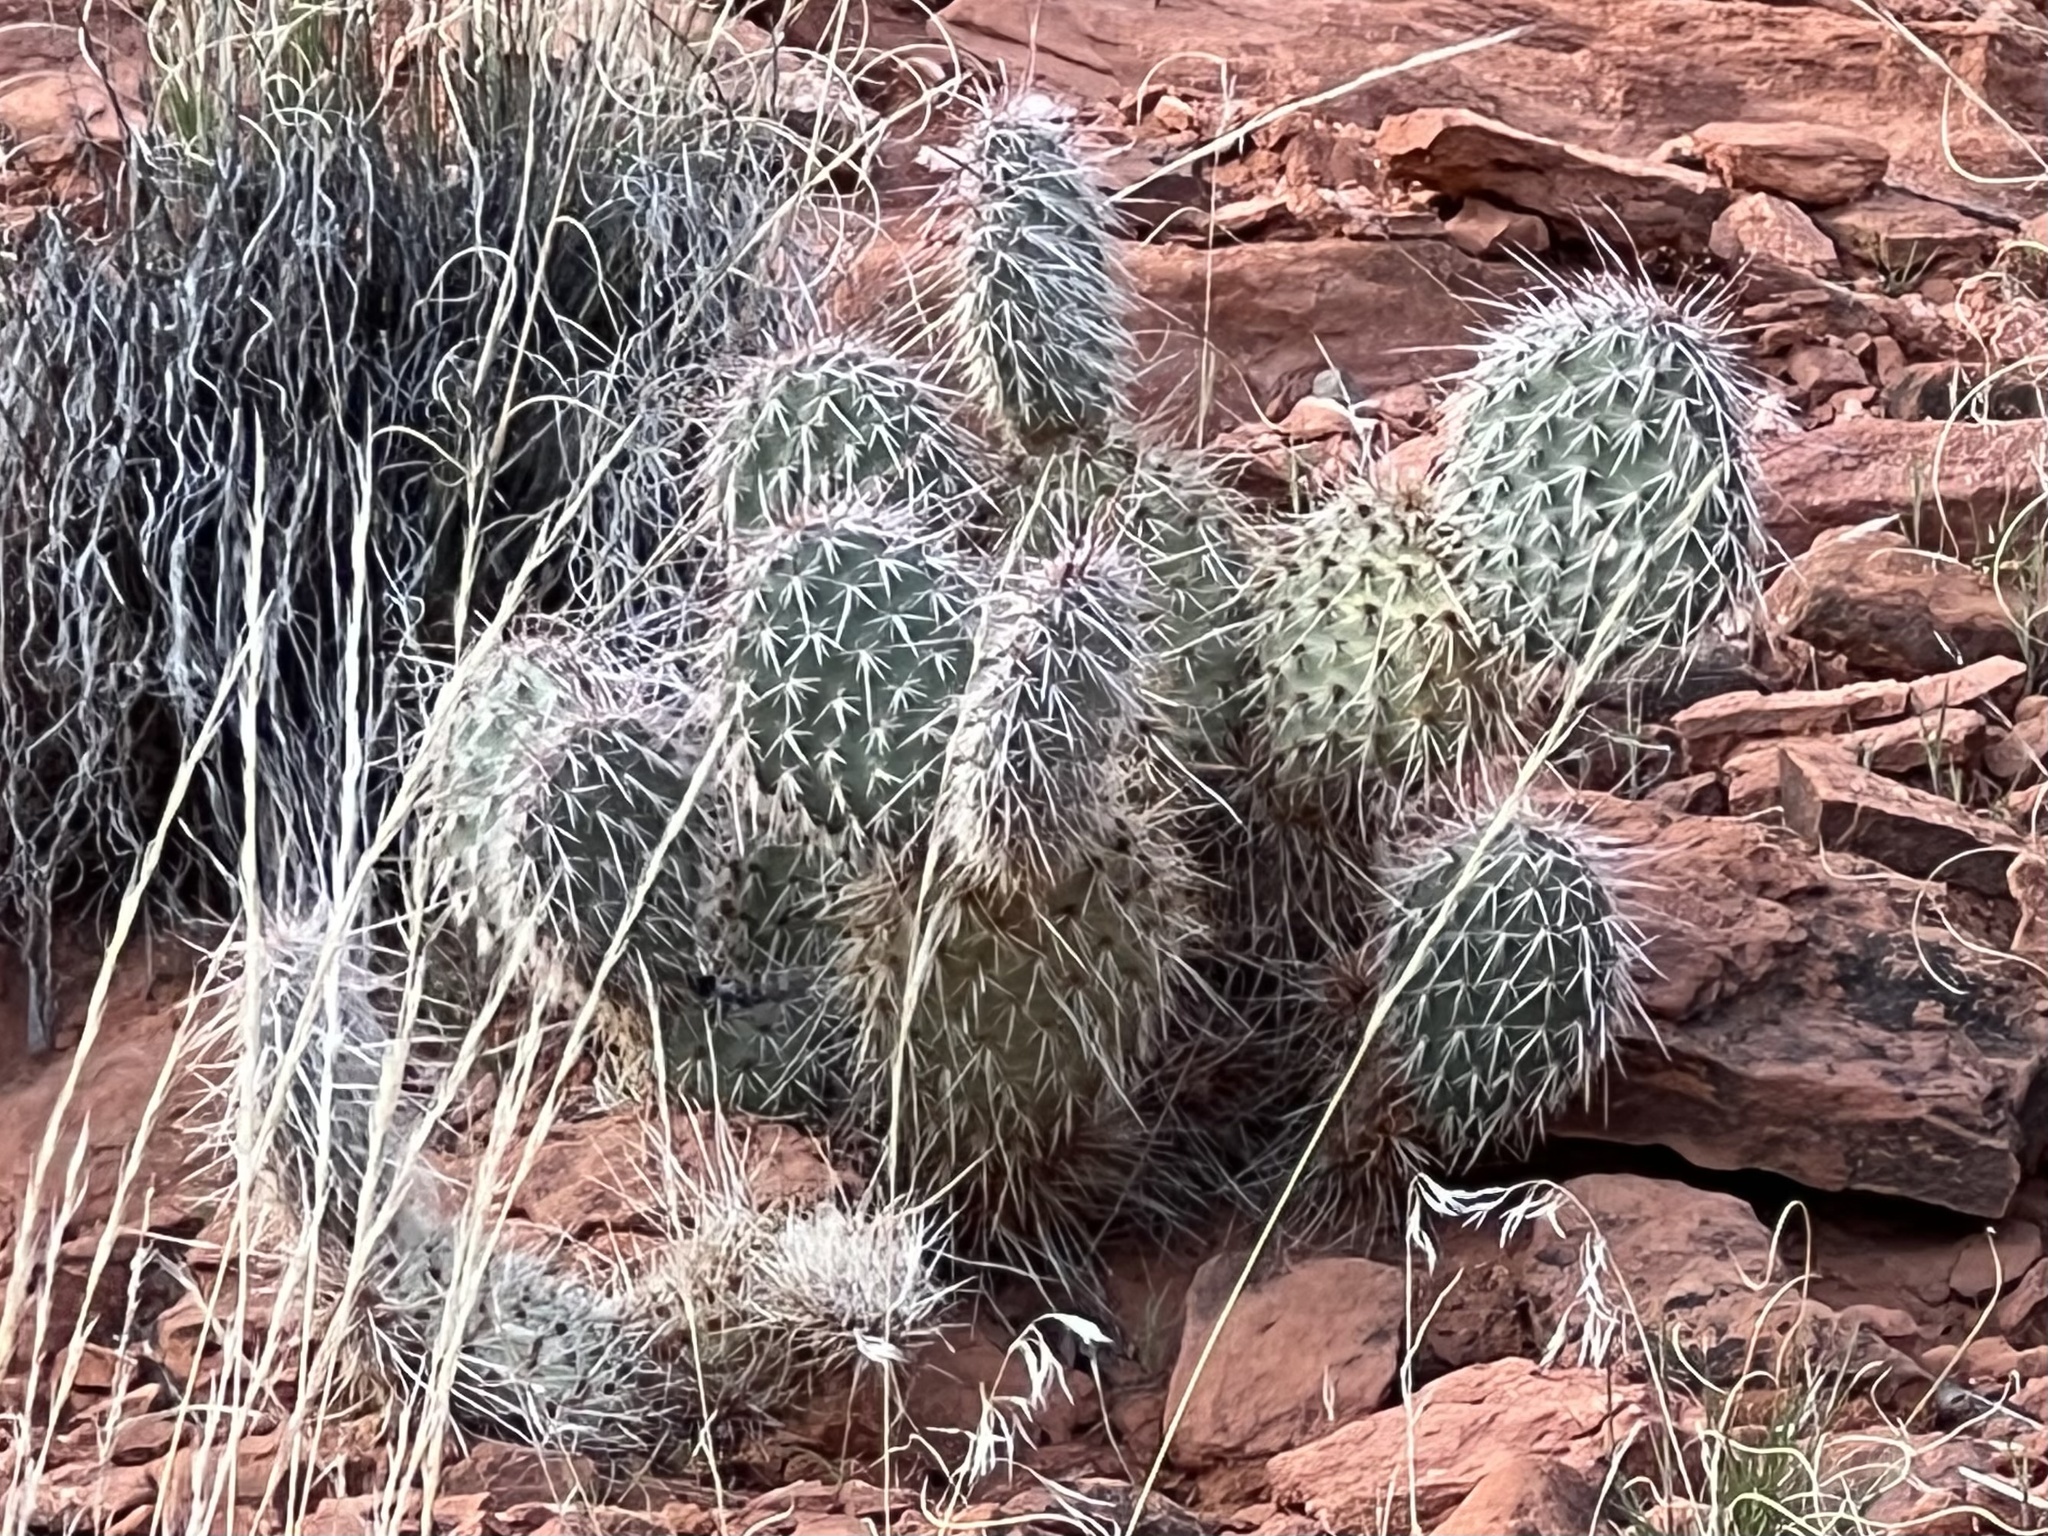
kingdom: Plantae
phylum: Tracheophyta
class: Magnoliopsida
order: Caryophyllales
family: Cactaceae
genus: Opuntia
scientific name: Opuntia polyacantha
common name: Plains prickly-pear
